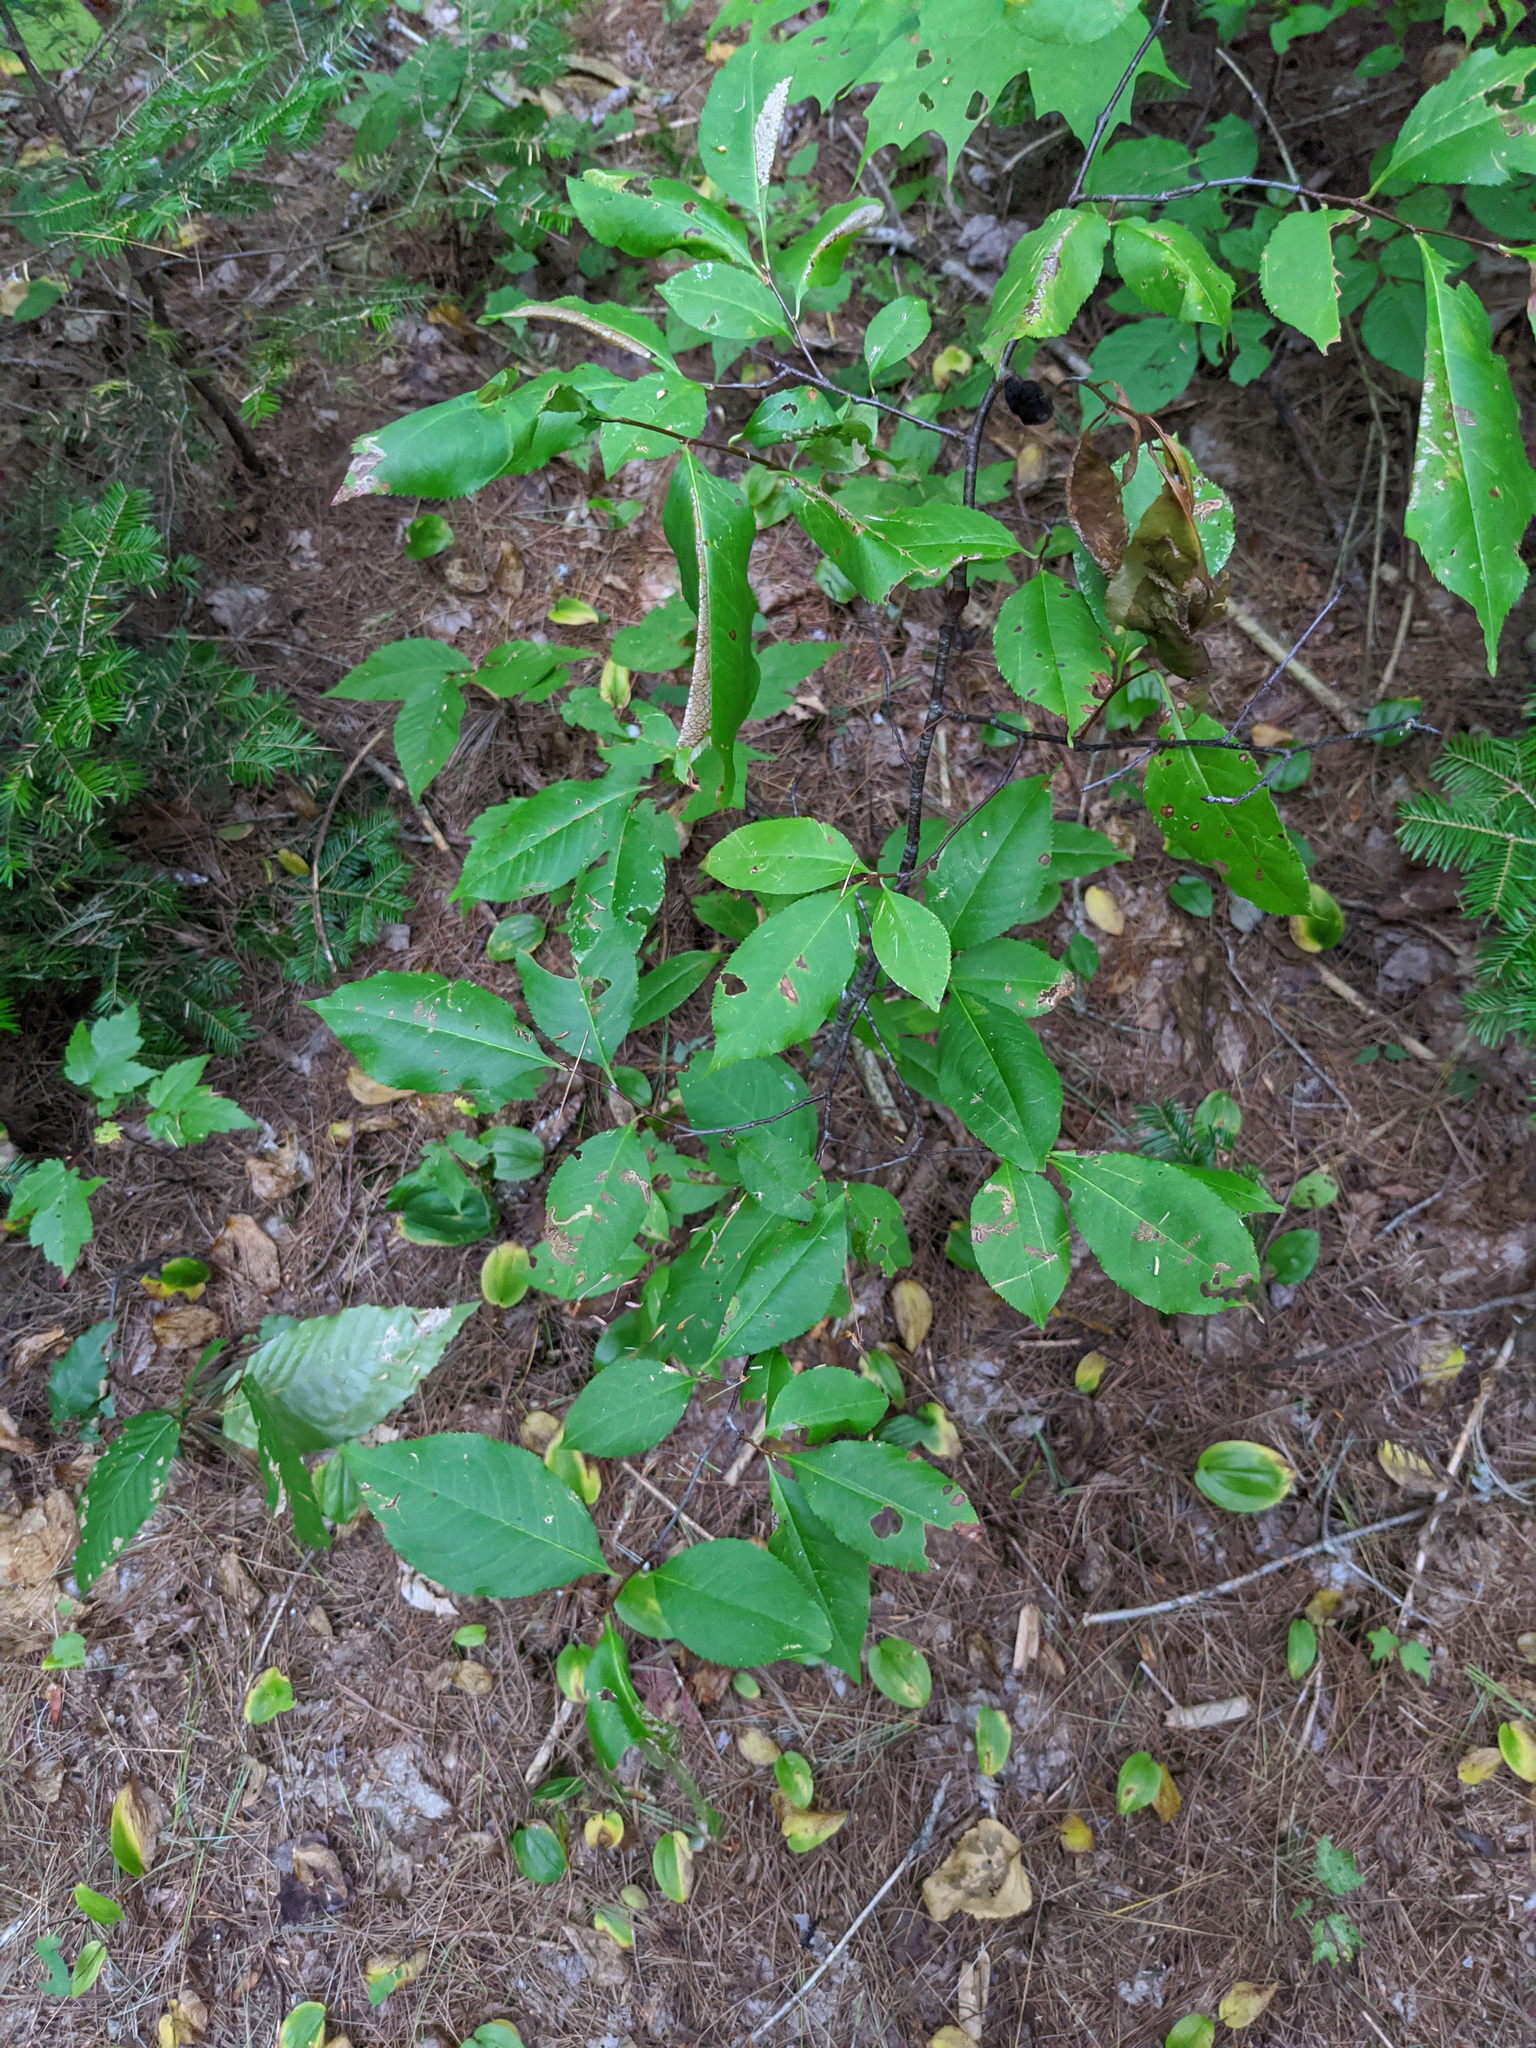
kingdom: Plantae
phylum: Tracheophyta
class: Magnoliopsida
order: Rosales
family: Rosaceae
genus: Prunus
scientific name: Prunus serotina
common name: Black cherry
